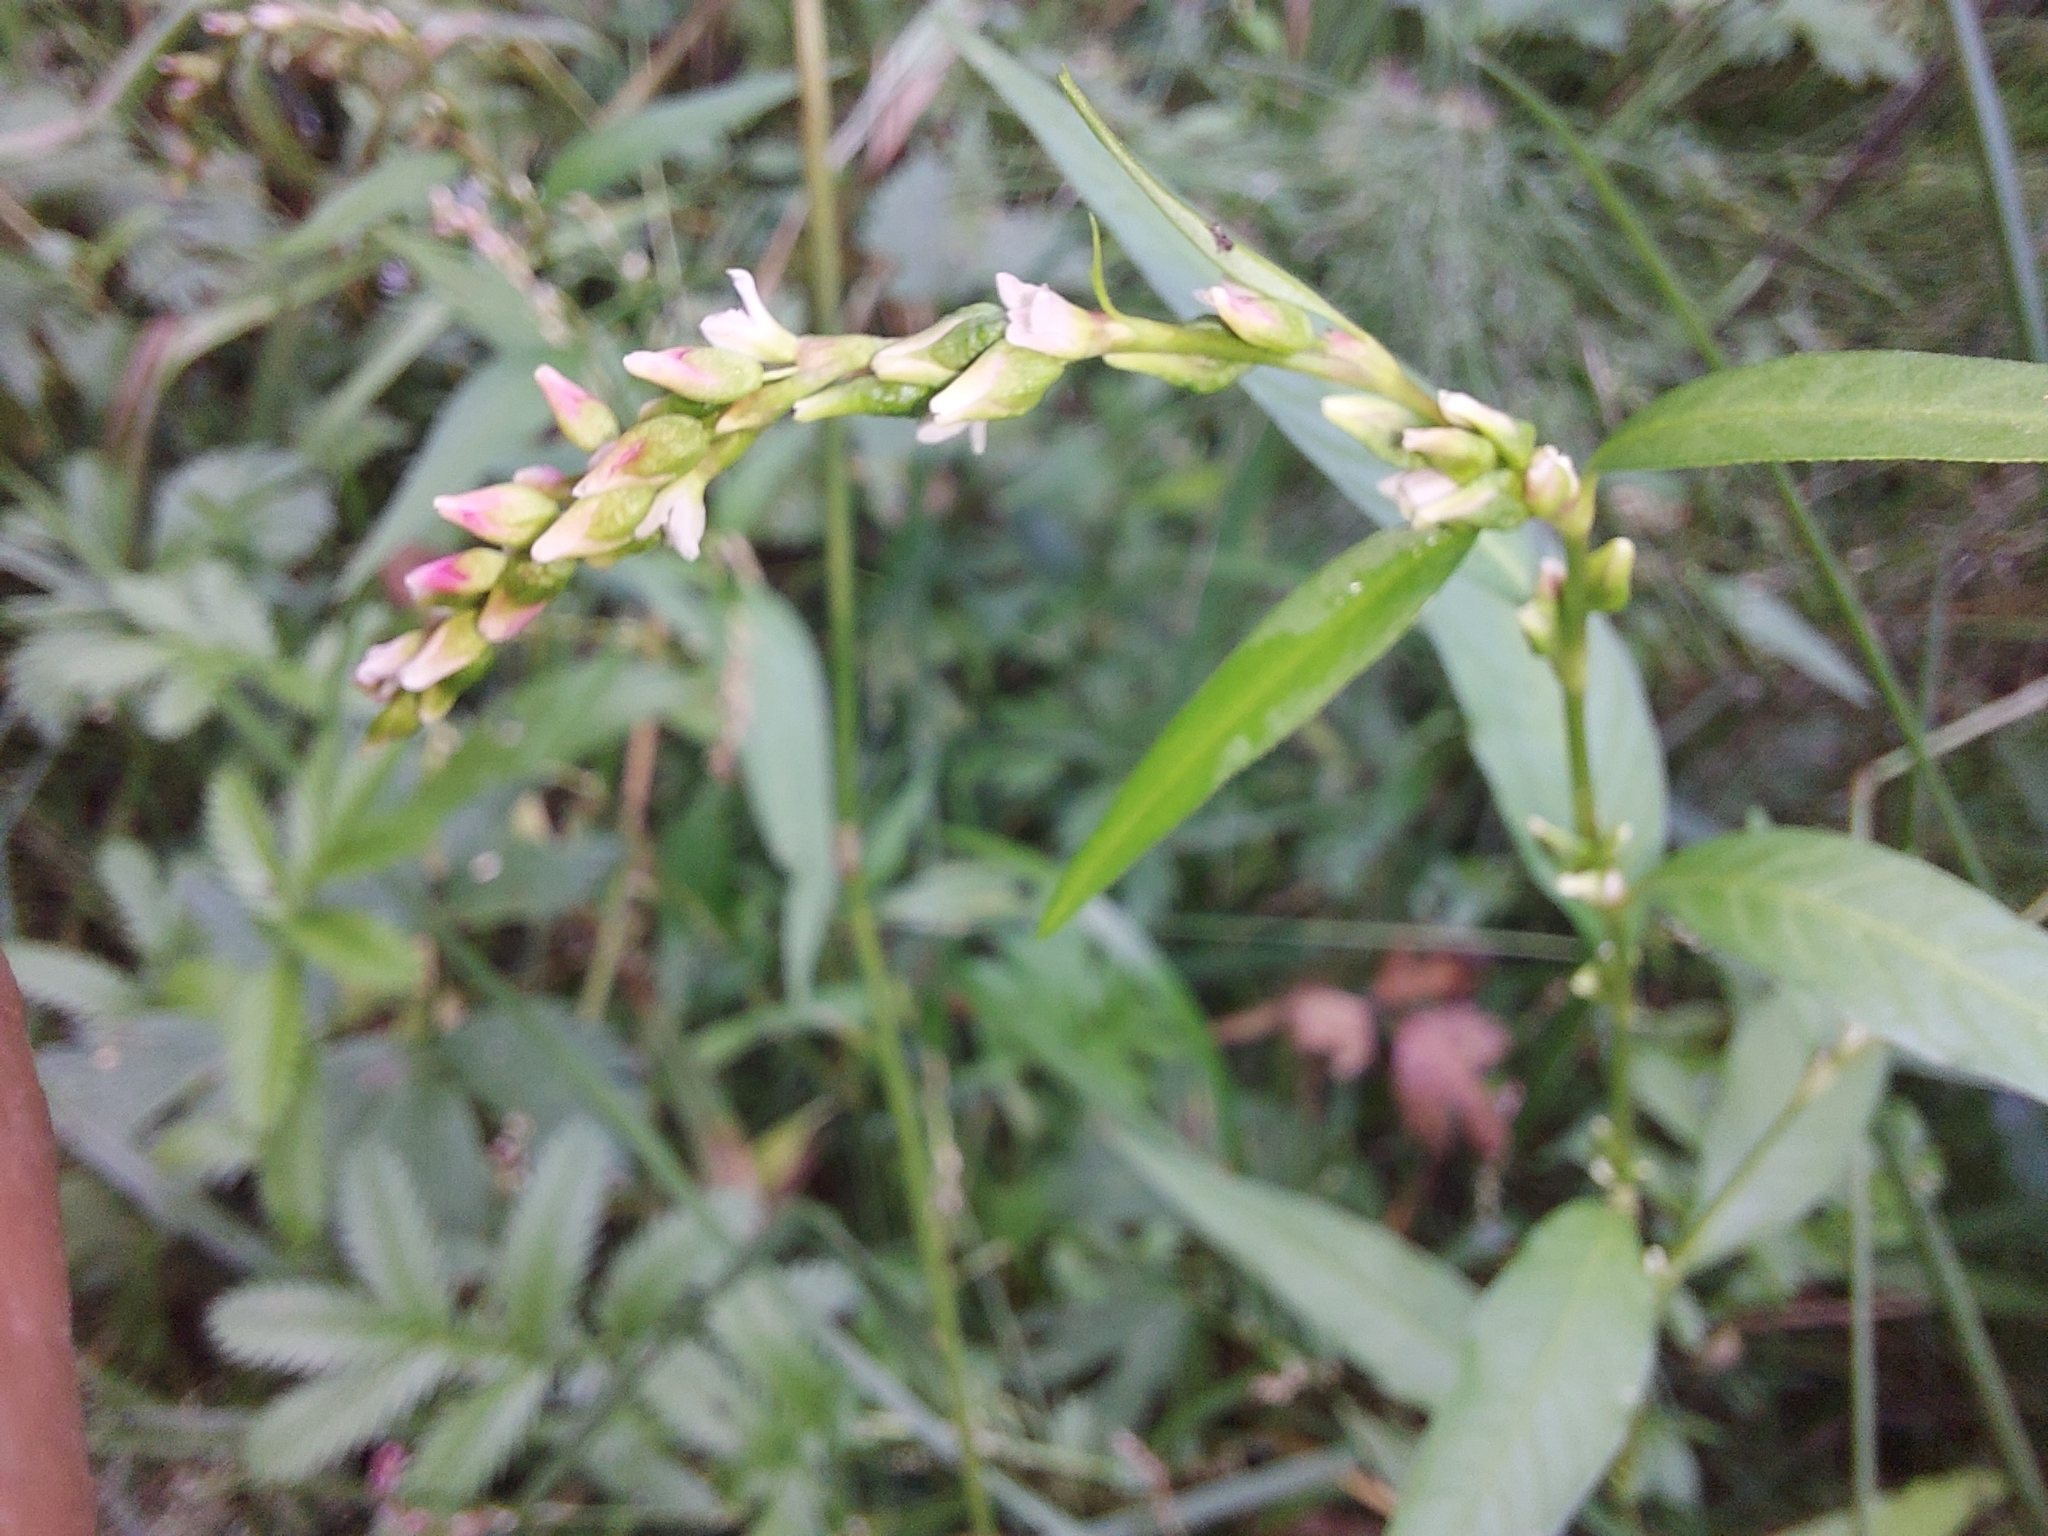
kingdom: Plantae
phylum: Tracheophyta
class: Magnoliopsida
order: Caryophyllales
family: Polygonaceae
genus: Persicaria
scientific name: Persicaria hydropiper
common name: Water-pepper
